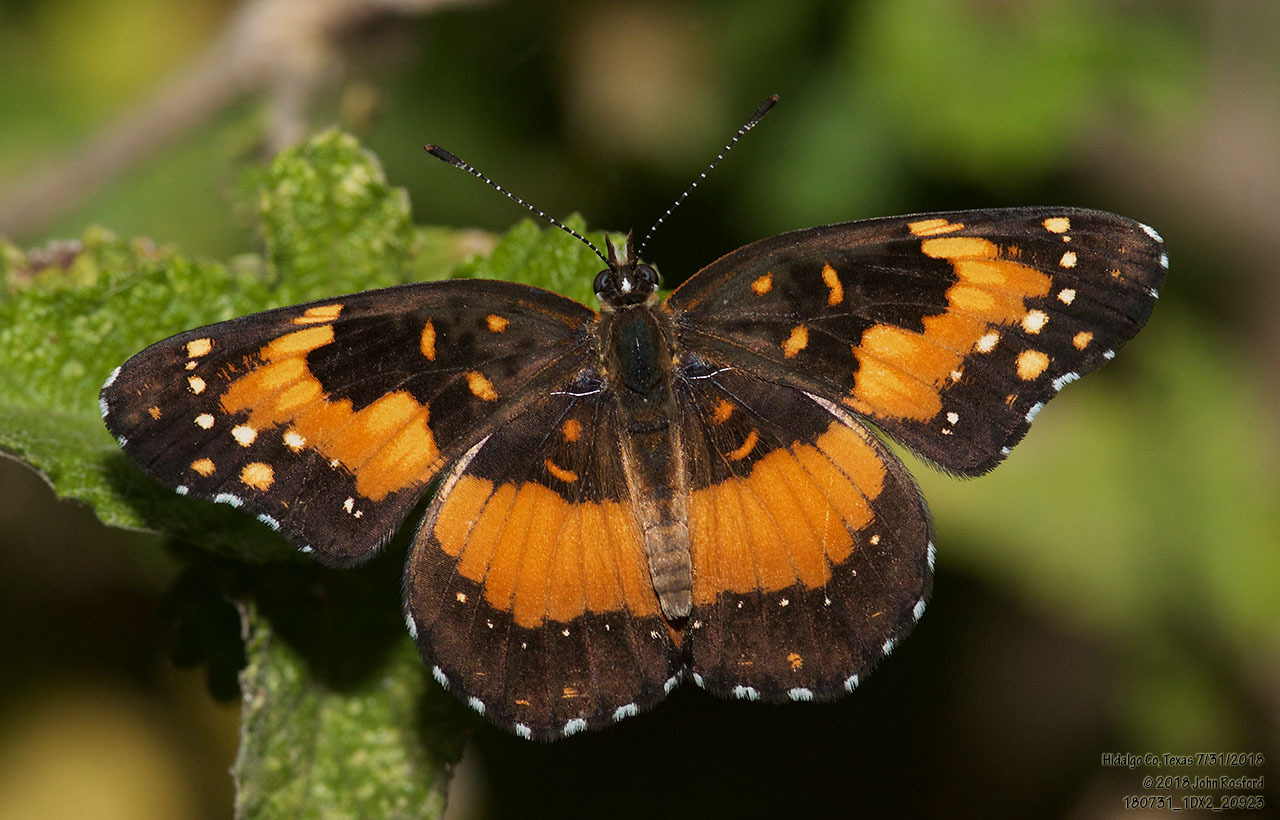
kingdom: Animalia
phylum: Arthropoda
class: Insecta
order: Lepidoptera
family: Nymphalidae
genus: Chlosyne
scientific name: Chlosyne lacinia
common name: Bordered patch
